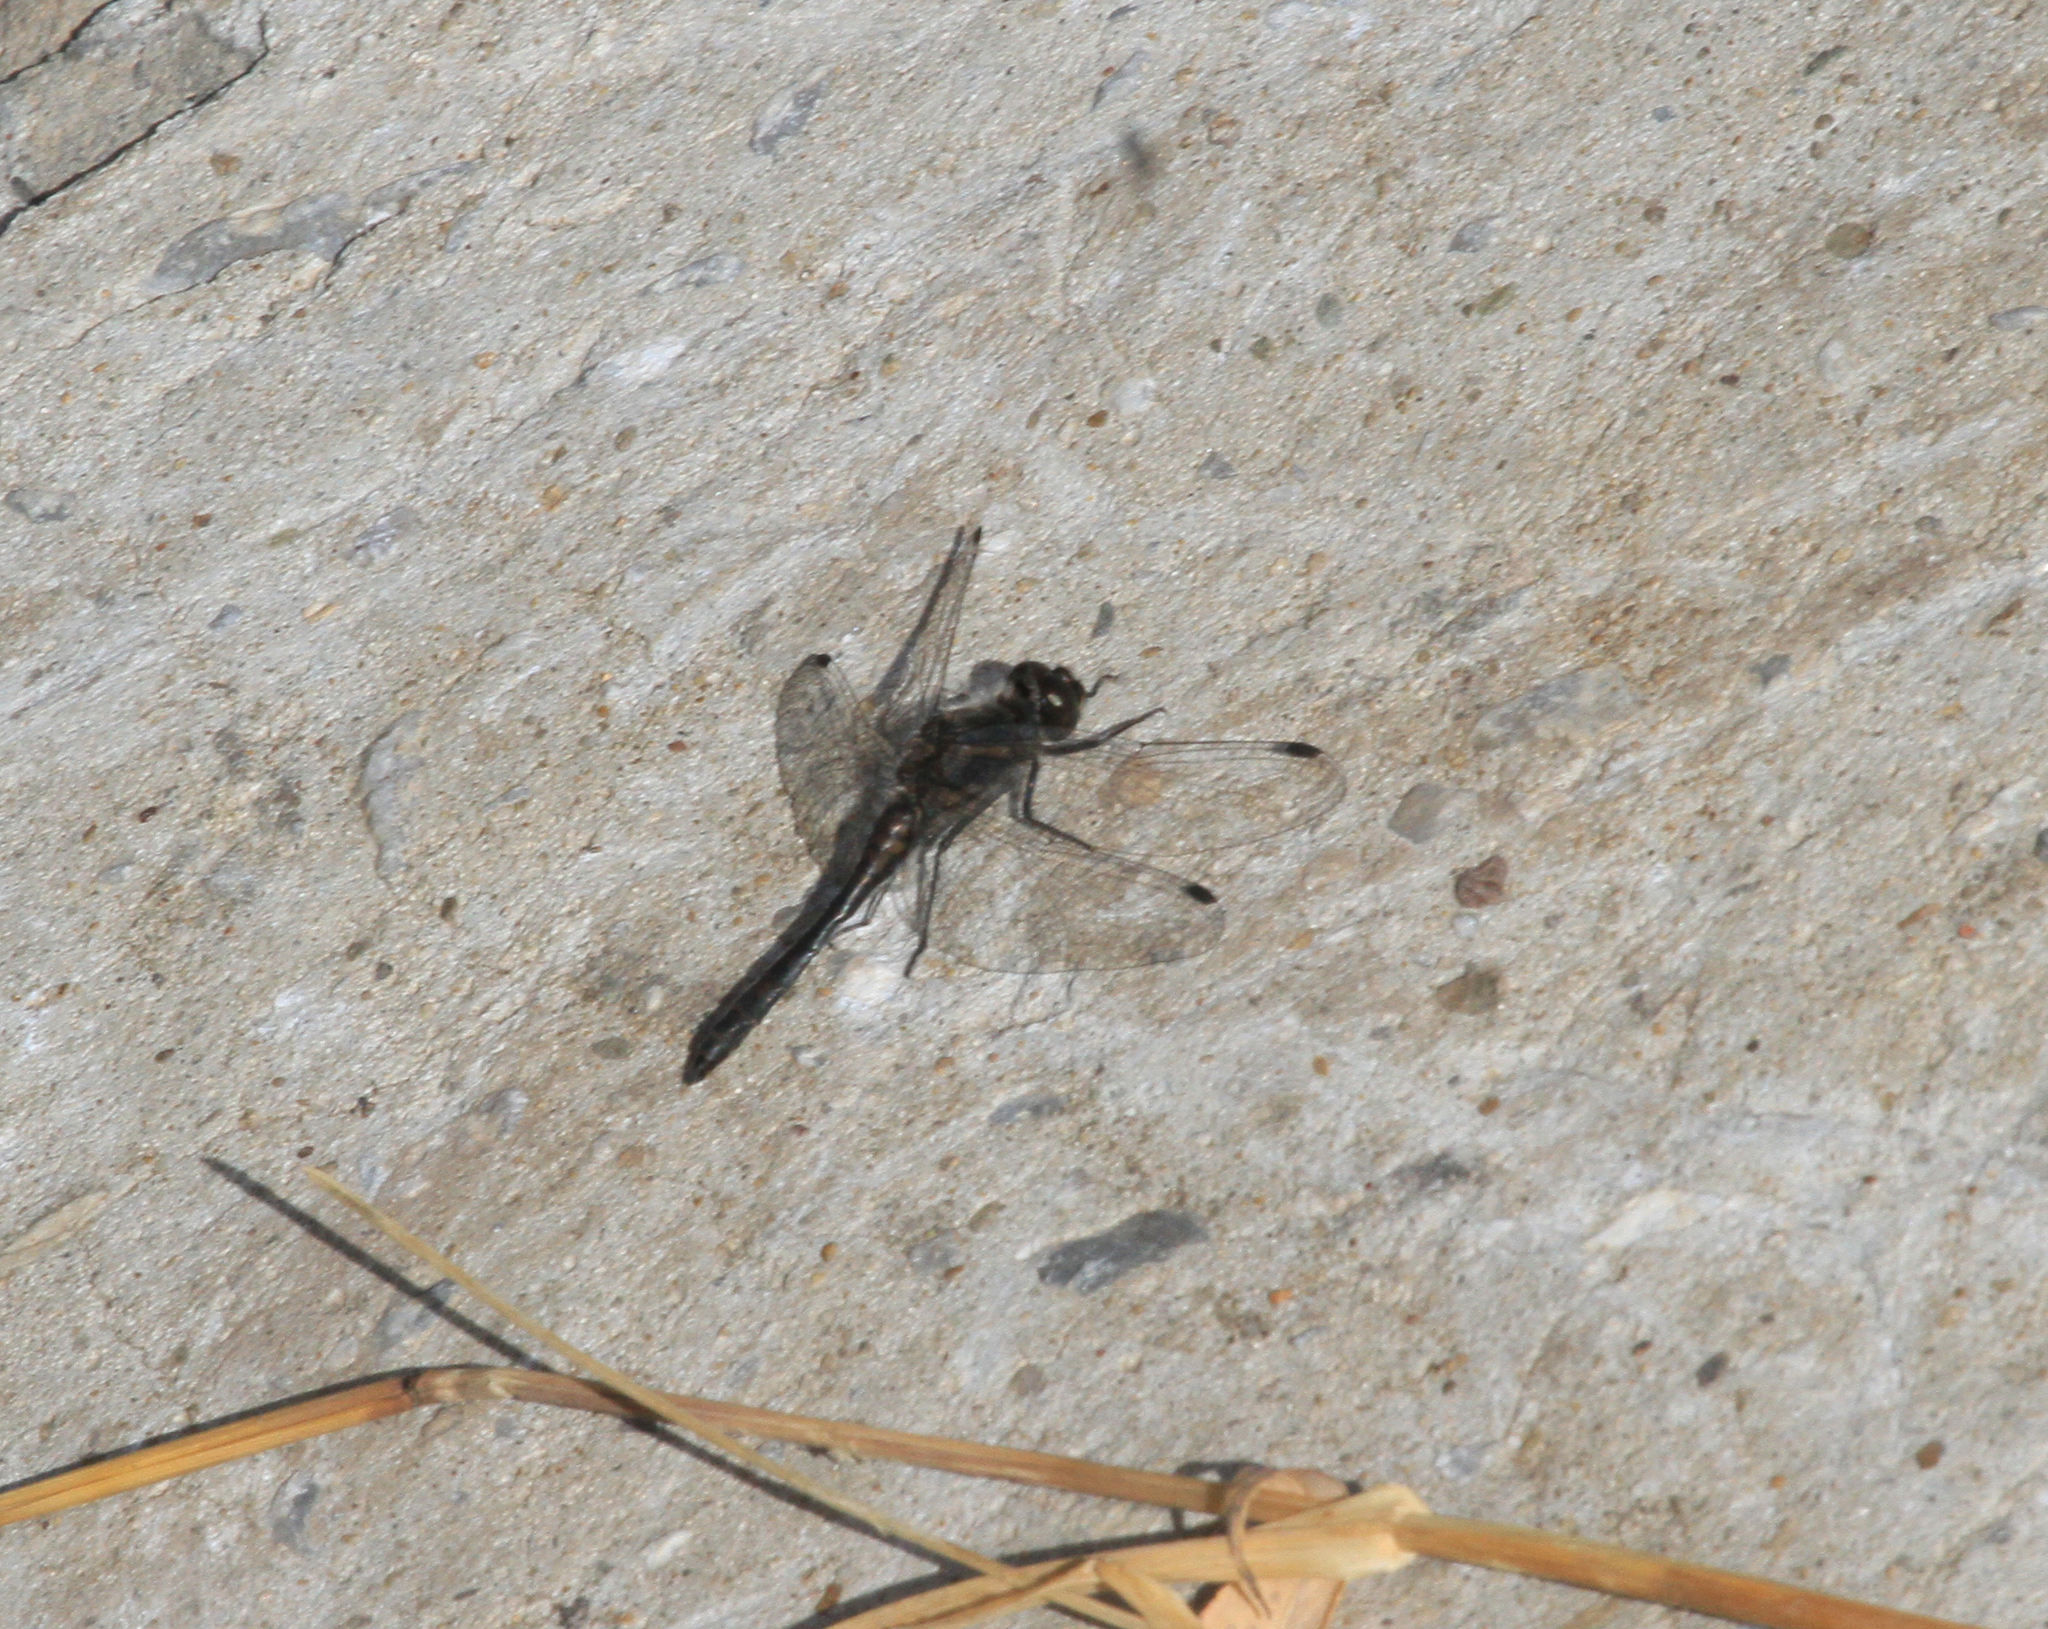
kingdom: Animalia
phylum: Arthropoda
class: Insecta
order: Odonata
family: Libellulidae
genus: Sympetrum
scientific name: Sympetrum danae
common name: Black darter
